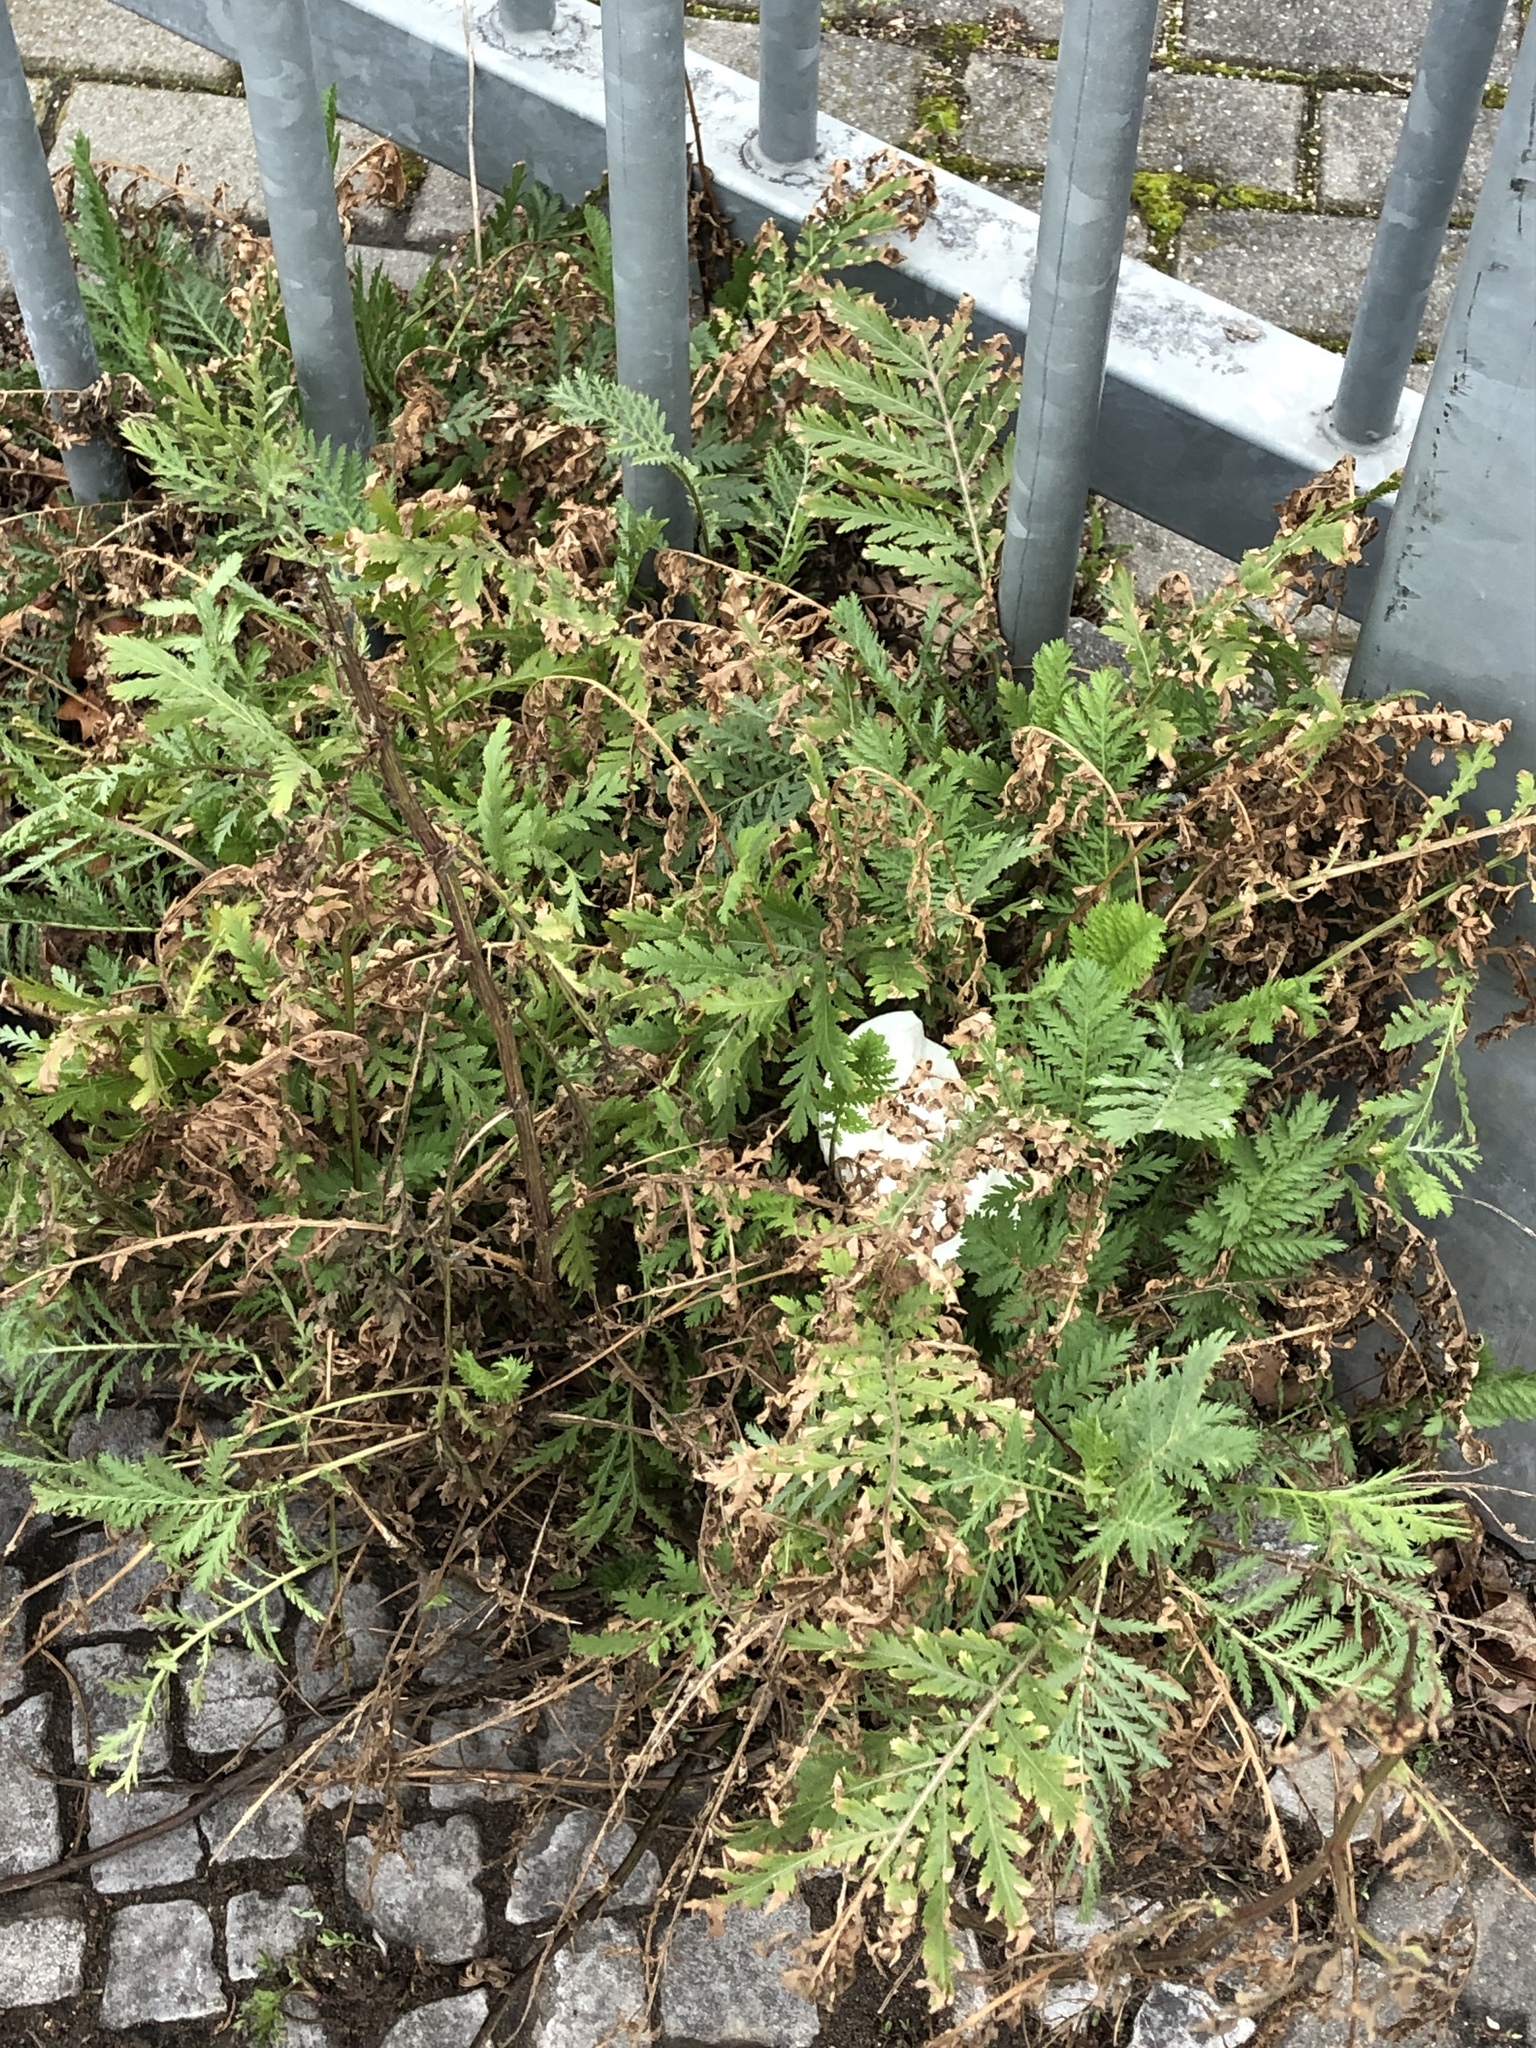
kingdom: Plantae
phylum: Tracheophyta
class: Magnoliopsida
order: Asterales
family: Asteraceae
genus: Tanacetum
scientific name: Tanacetum vulgare
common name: Common tansy
